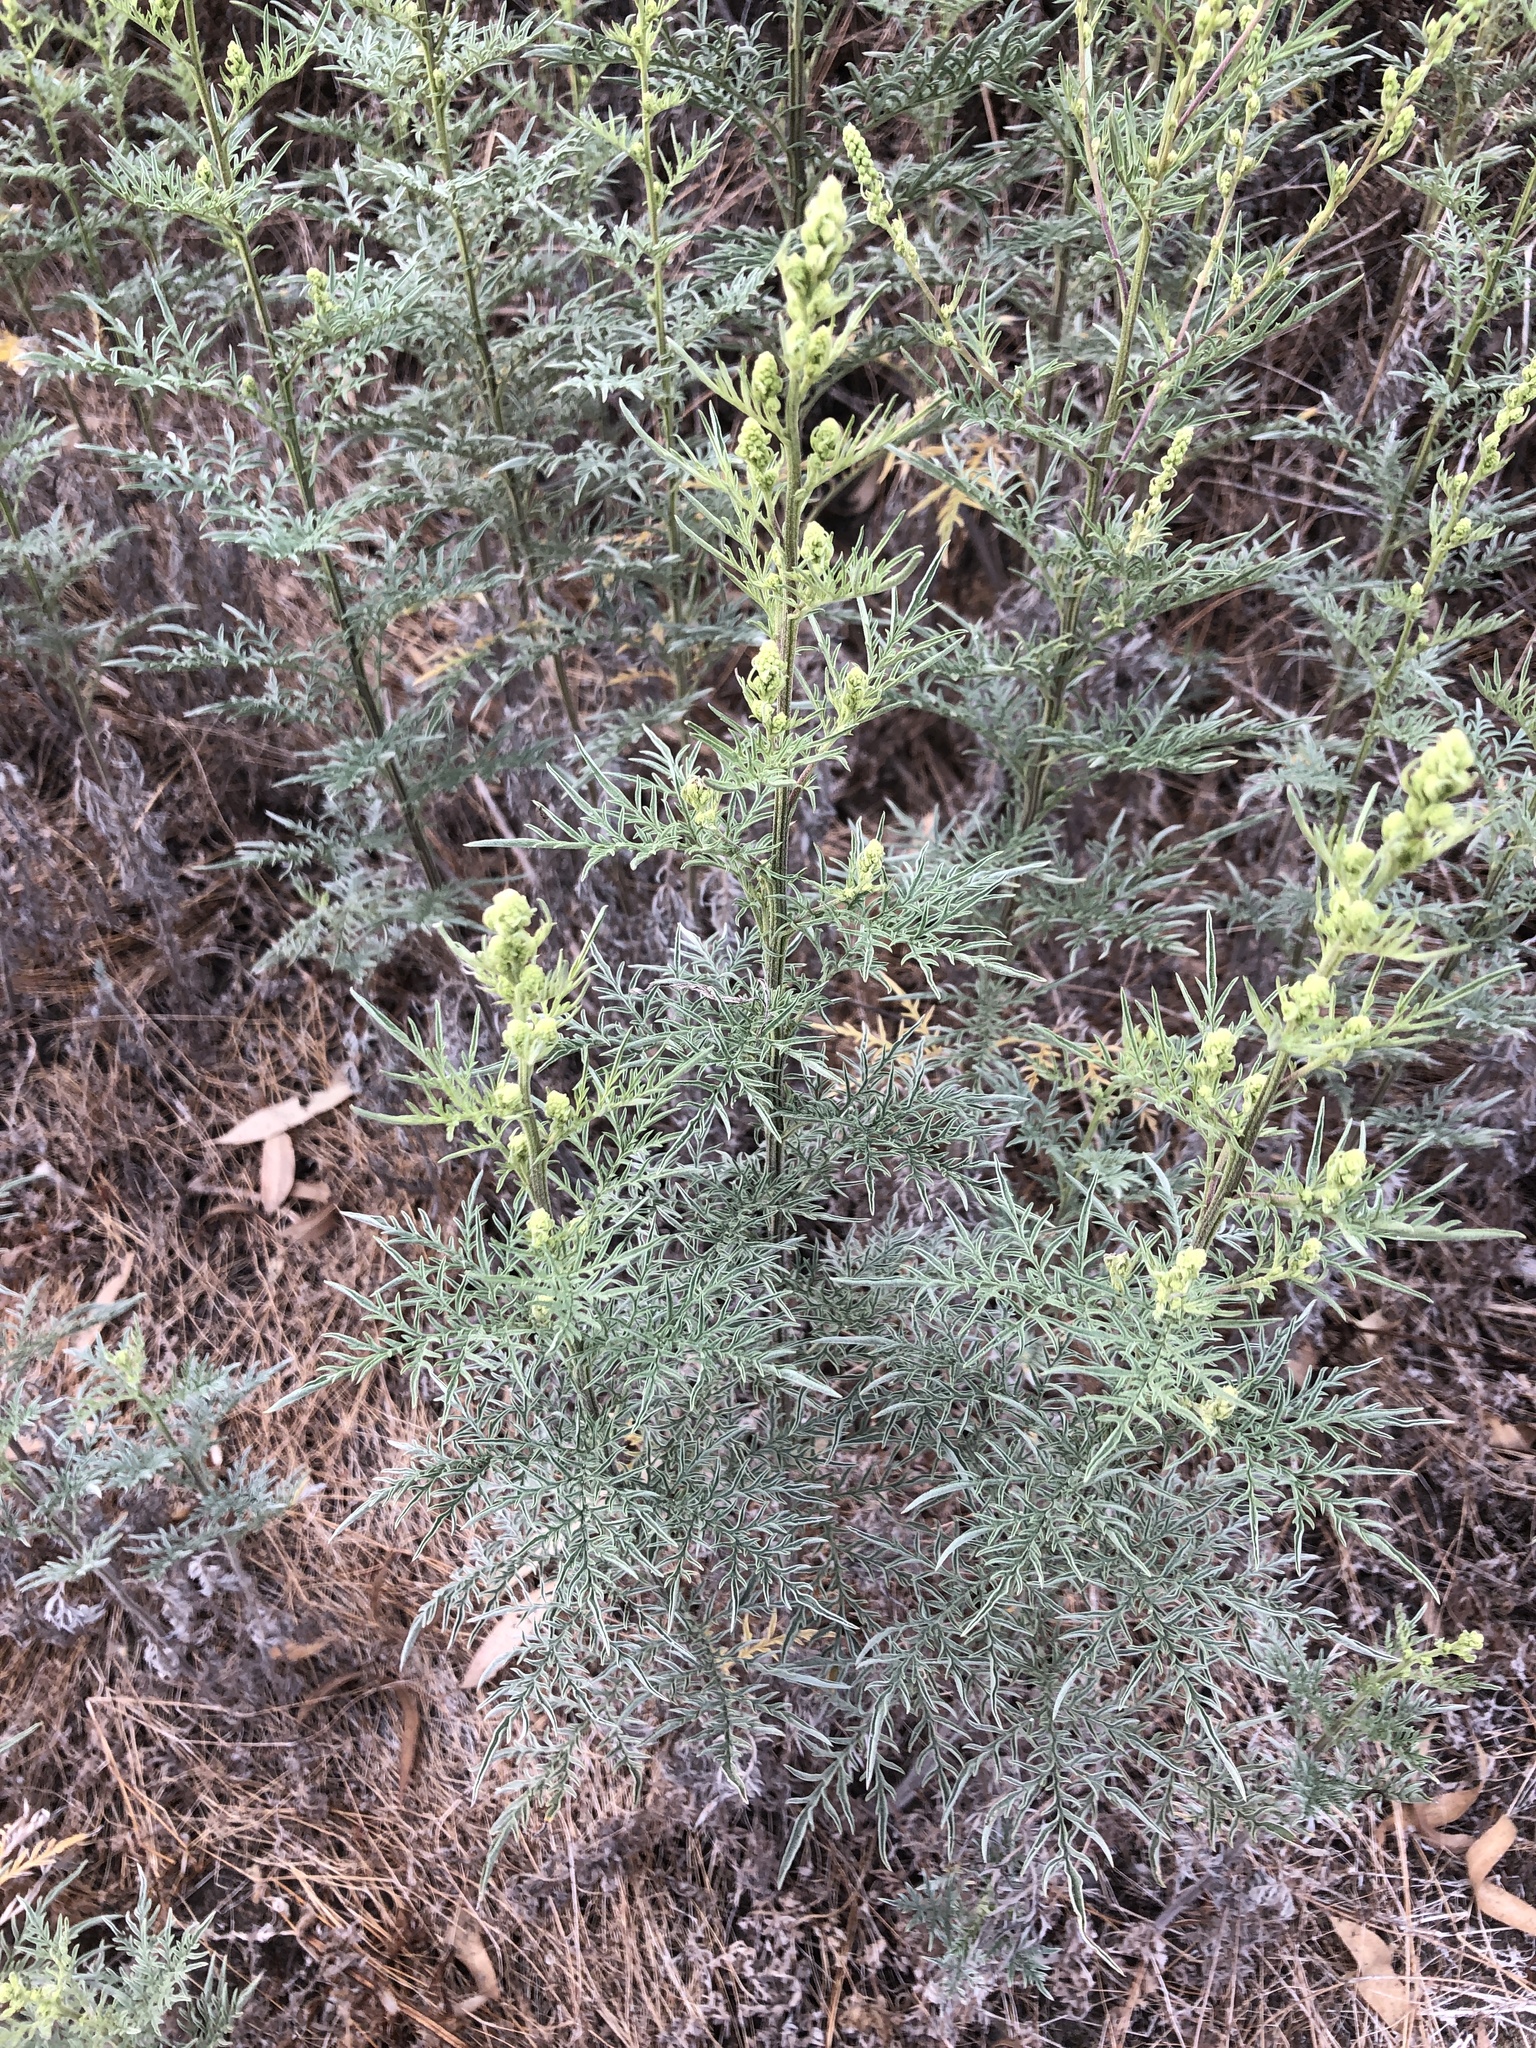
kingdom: Plantae
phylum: Tracheophyta
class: Magnoliopsida
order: Asterales
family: Asteraceae
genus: Ambrosia
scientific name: Ambrosia confertiflora
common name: Bur ragweed
